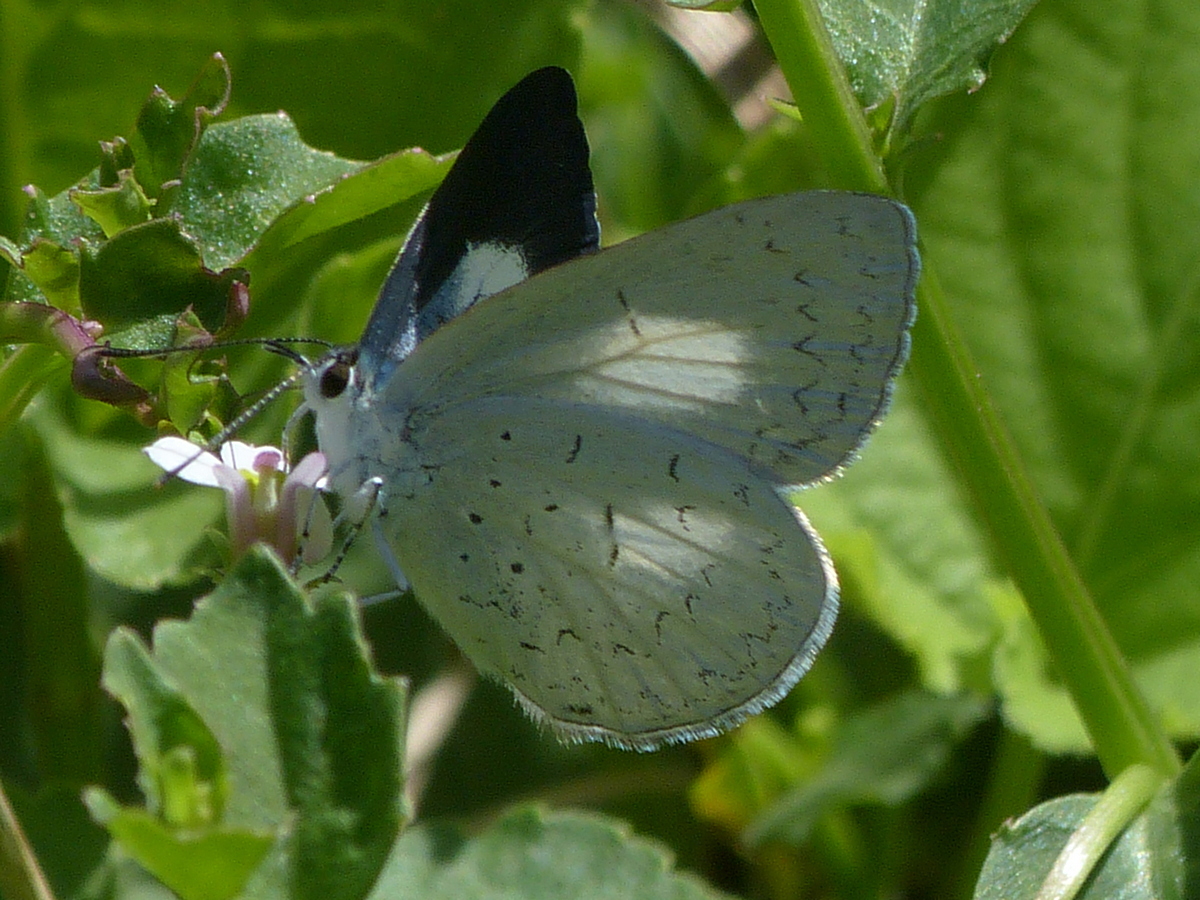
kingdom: Animalia
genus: Eirmocides
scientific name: Eirmocides
